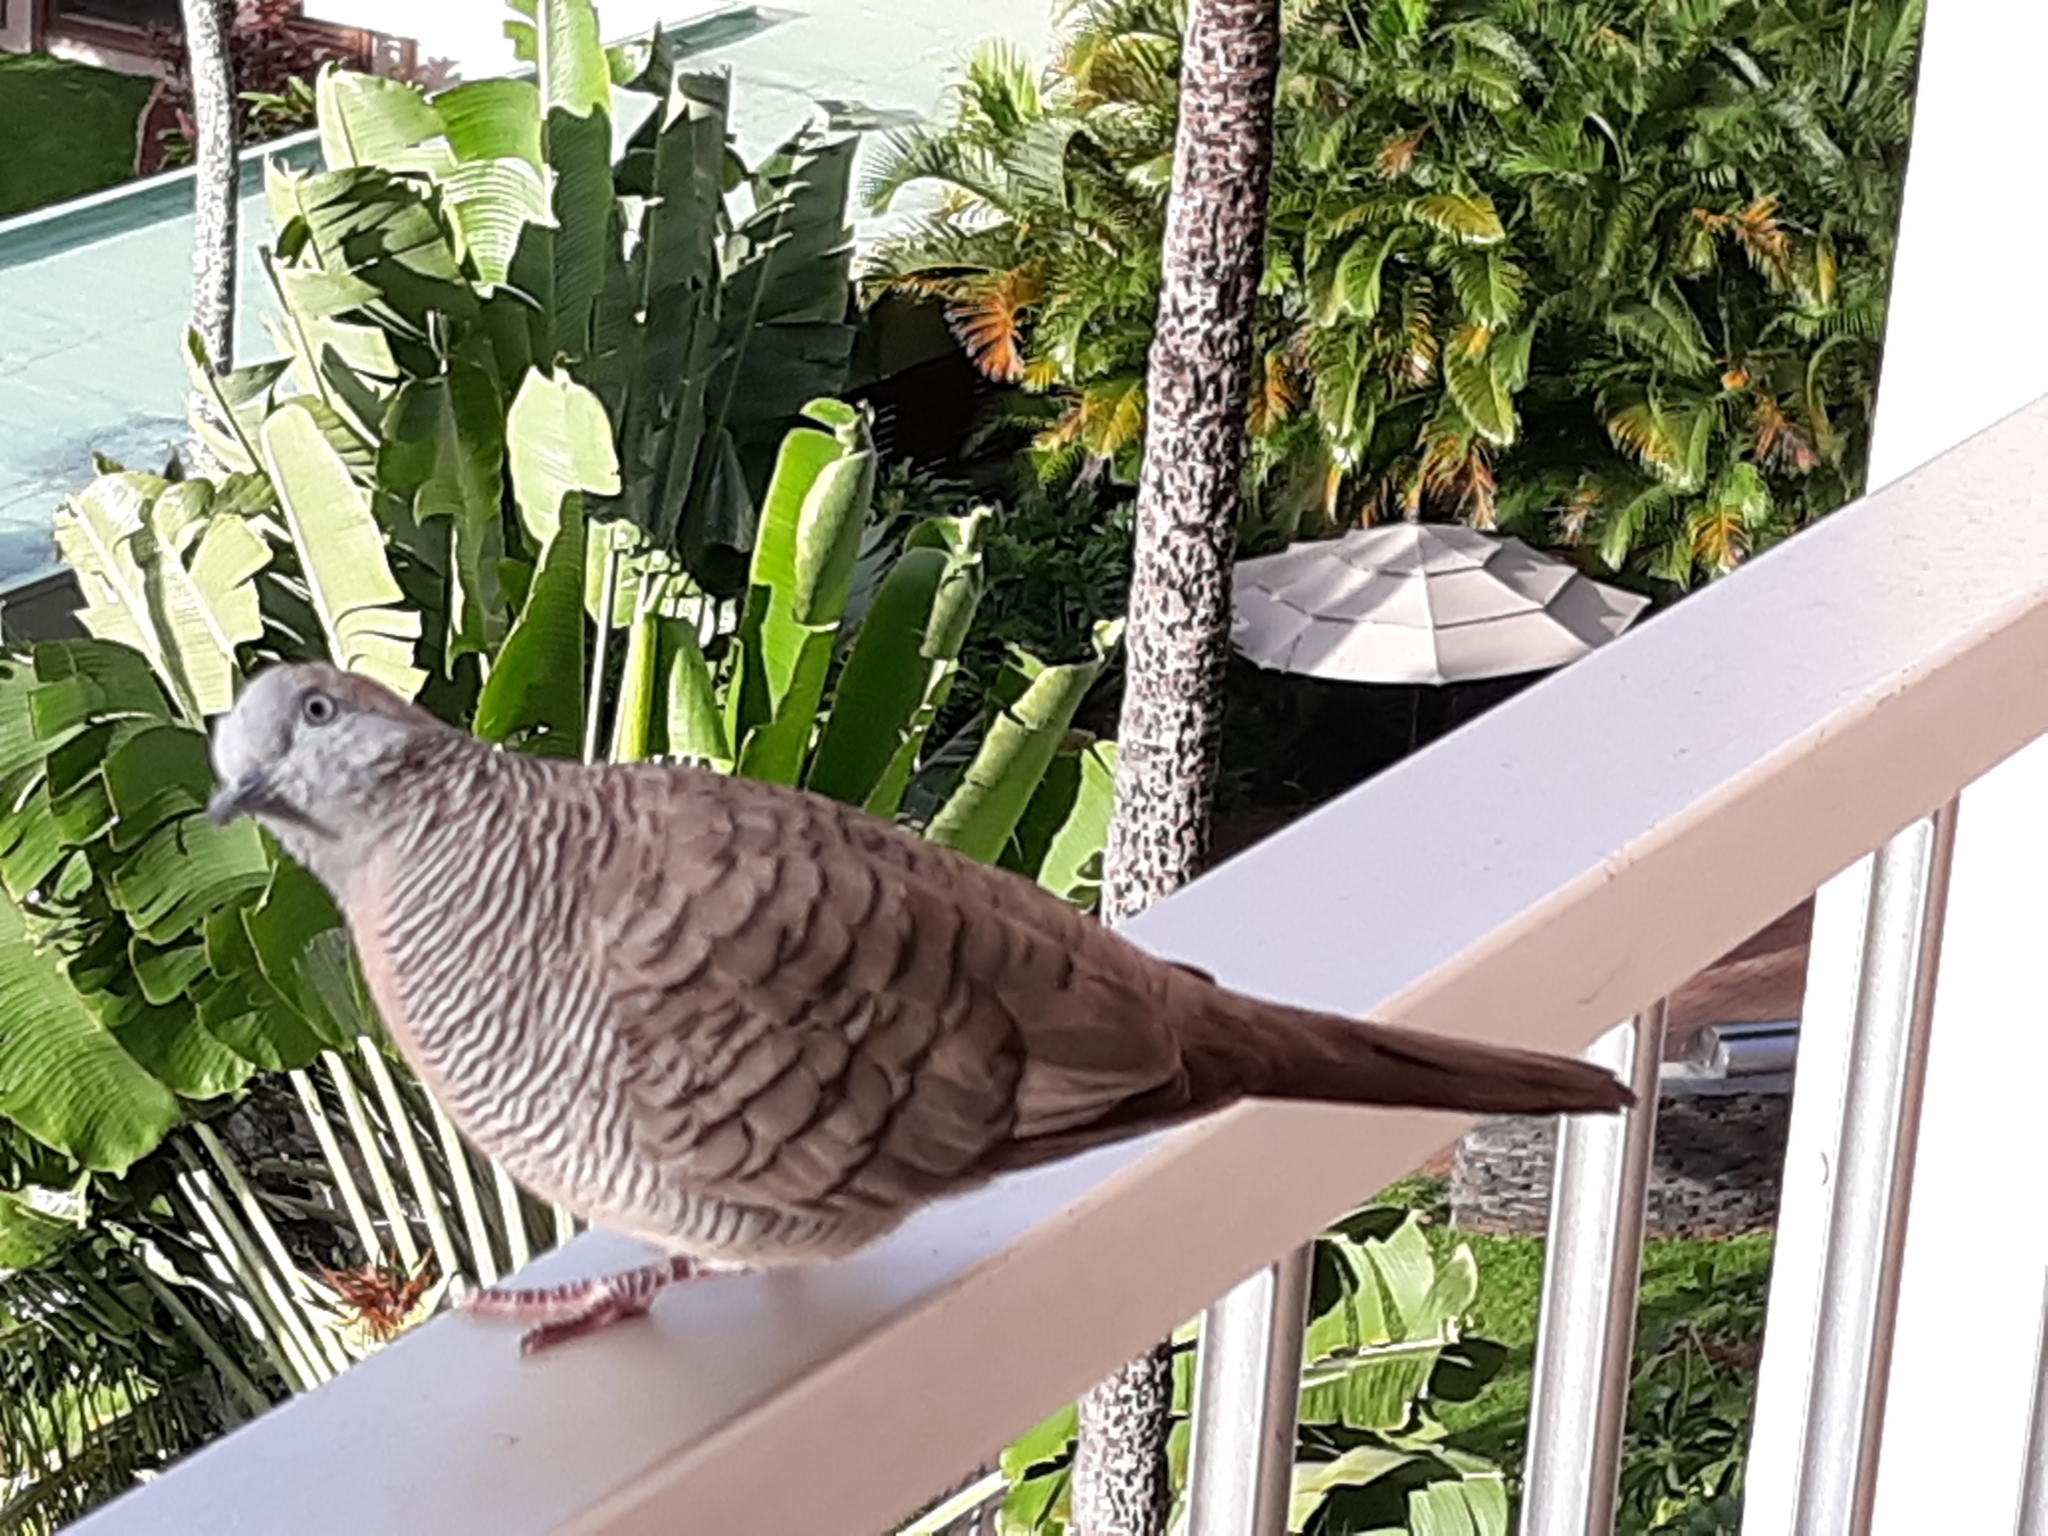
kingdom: Animalia
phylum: Chordata
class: Aves
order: Columbiformes
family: Columbidae
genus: Geopelia
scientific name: Geopelia striata
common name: Zebra dove
